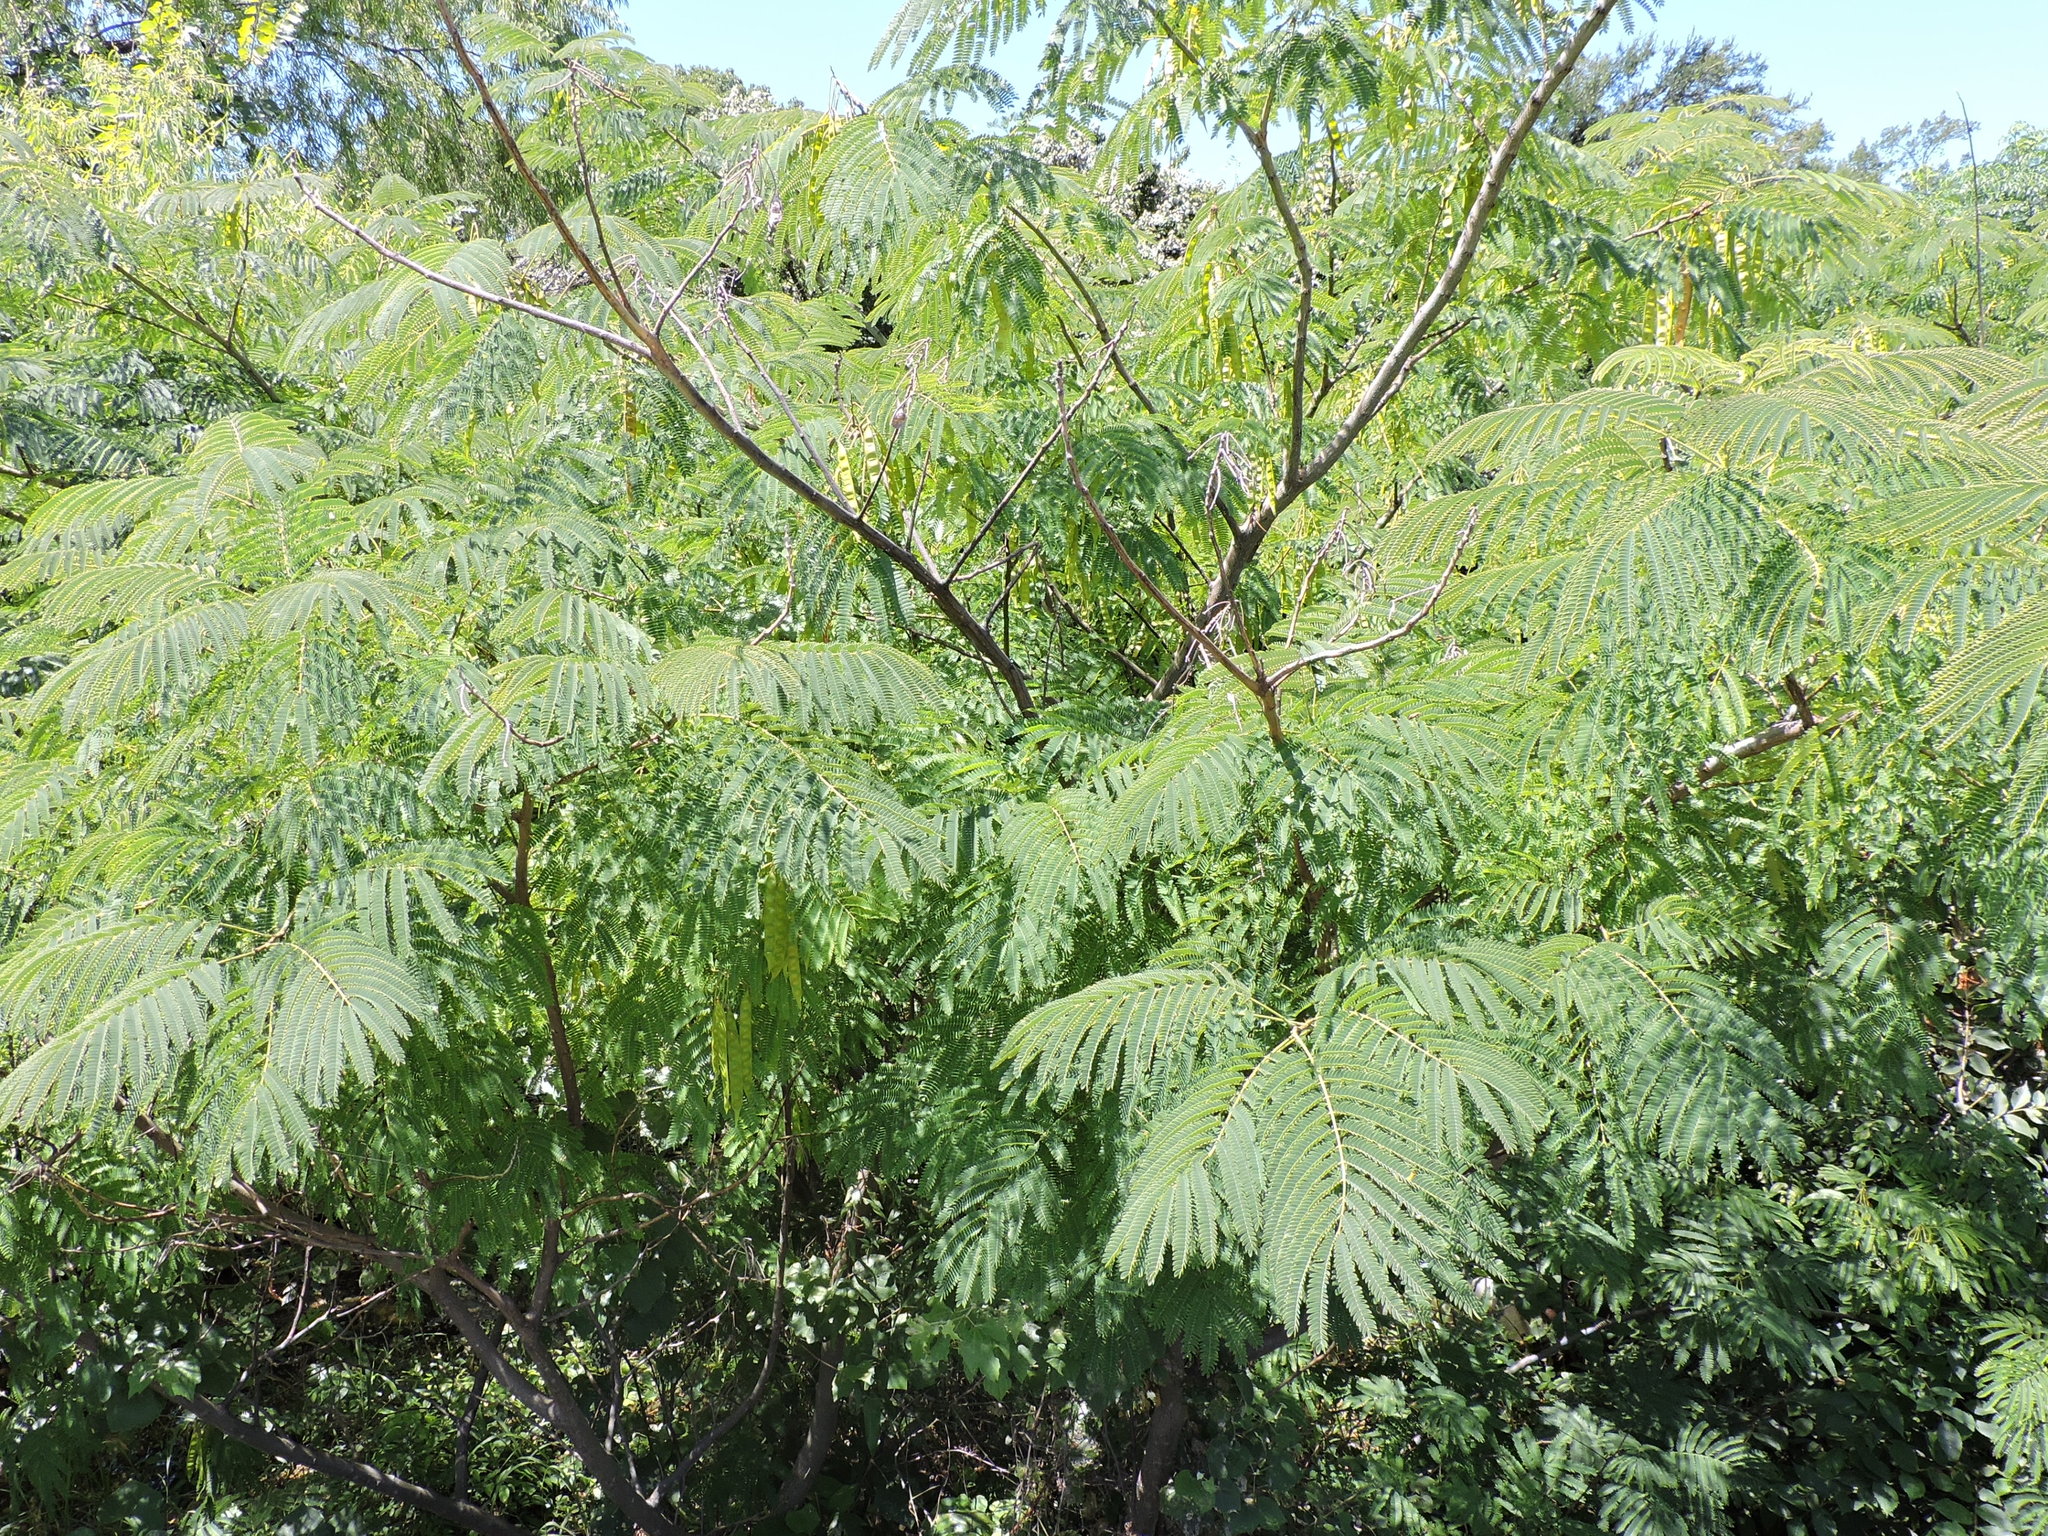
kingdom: Plantae
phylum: Tracheophyta
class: Magnoliopsida
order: Fabales
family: Fabaceae
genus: Albizia
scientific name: Albizia julibrissin
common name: Silktree
